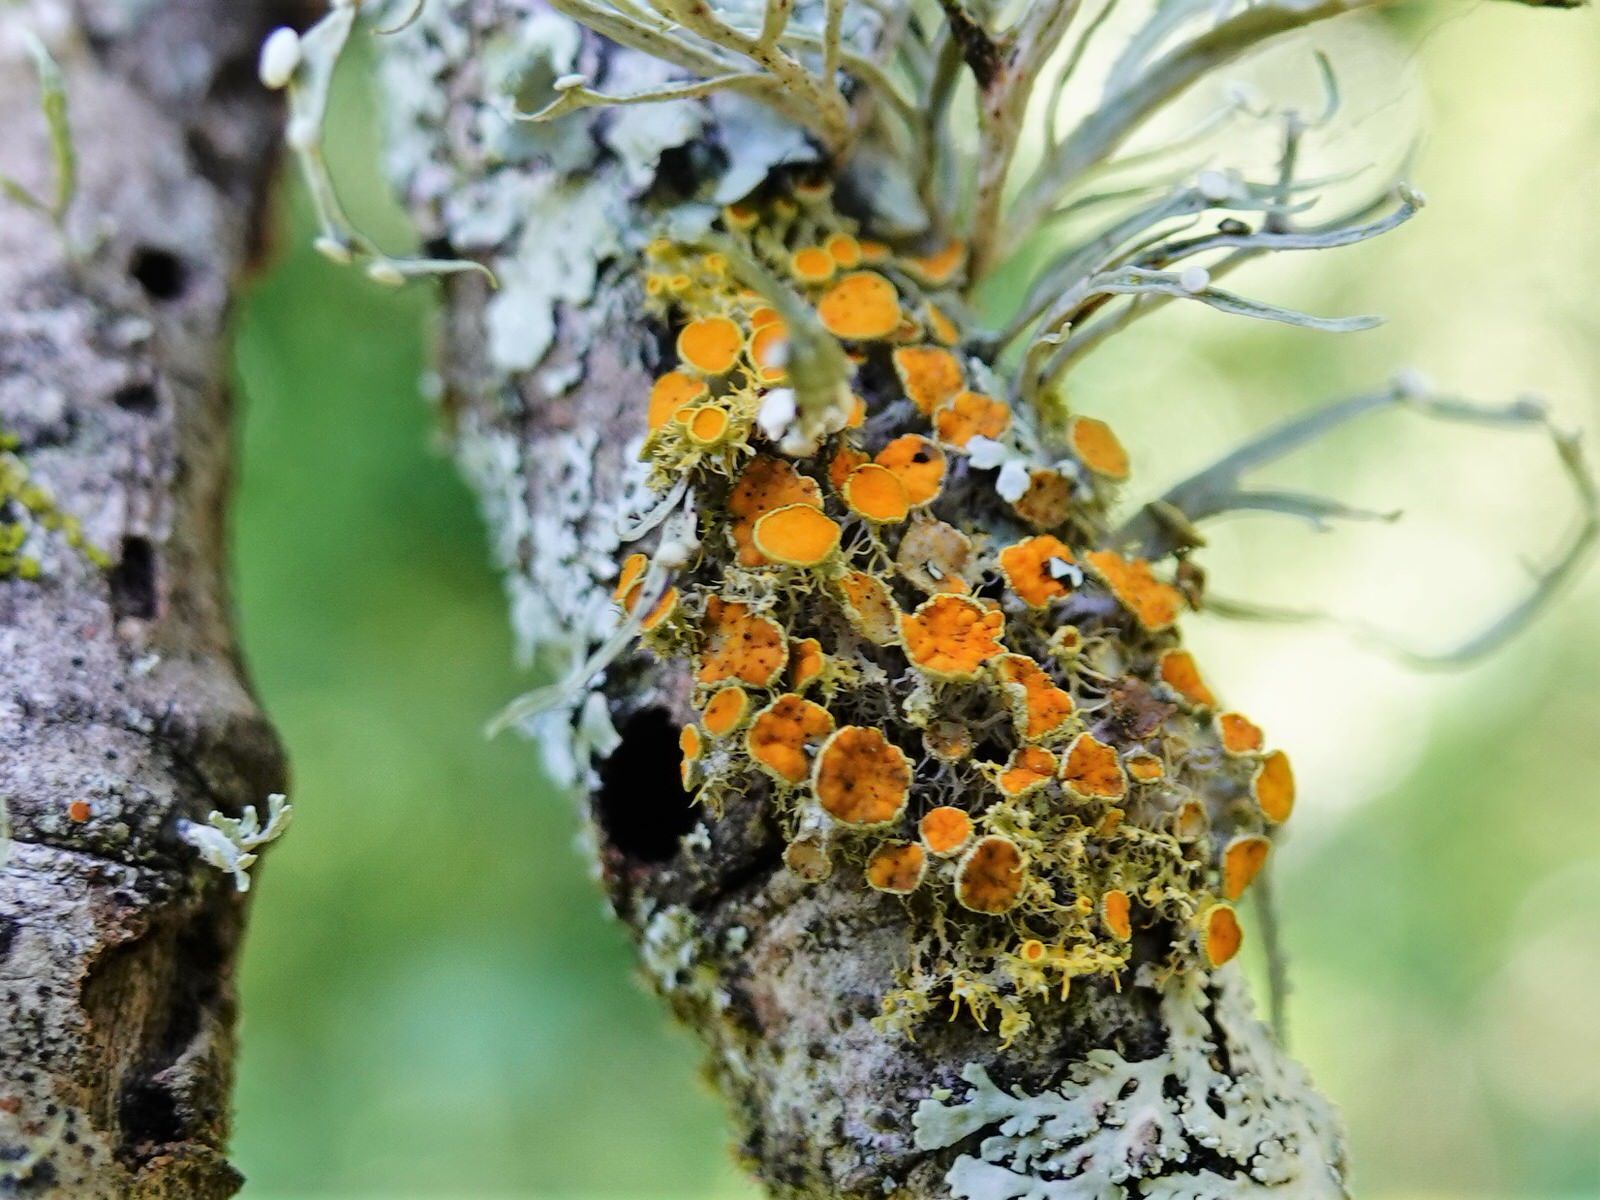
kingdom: Fungi
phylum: Ascomycota
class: Lecanoromycetes
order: Teloschistales
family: Teloschistaceae
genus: Teloschistes
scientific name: Teloschistes sieberianus
